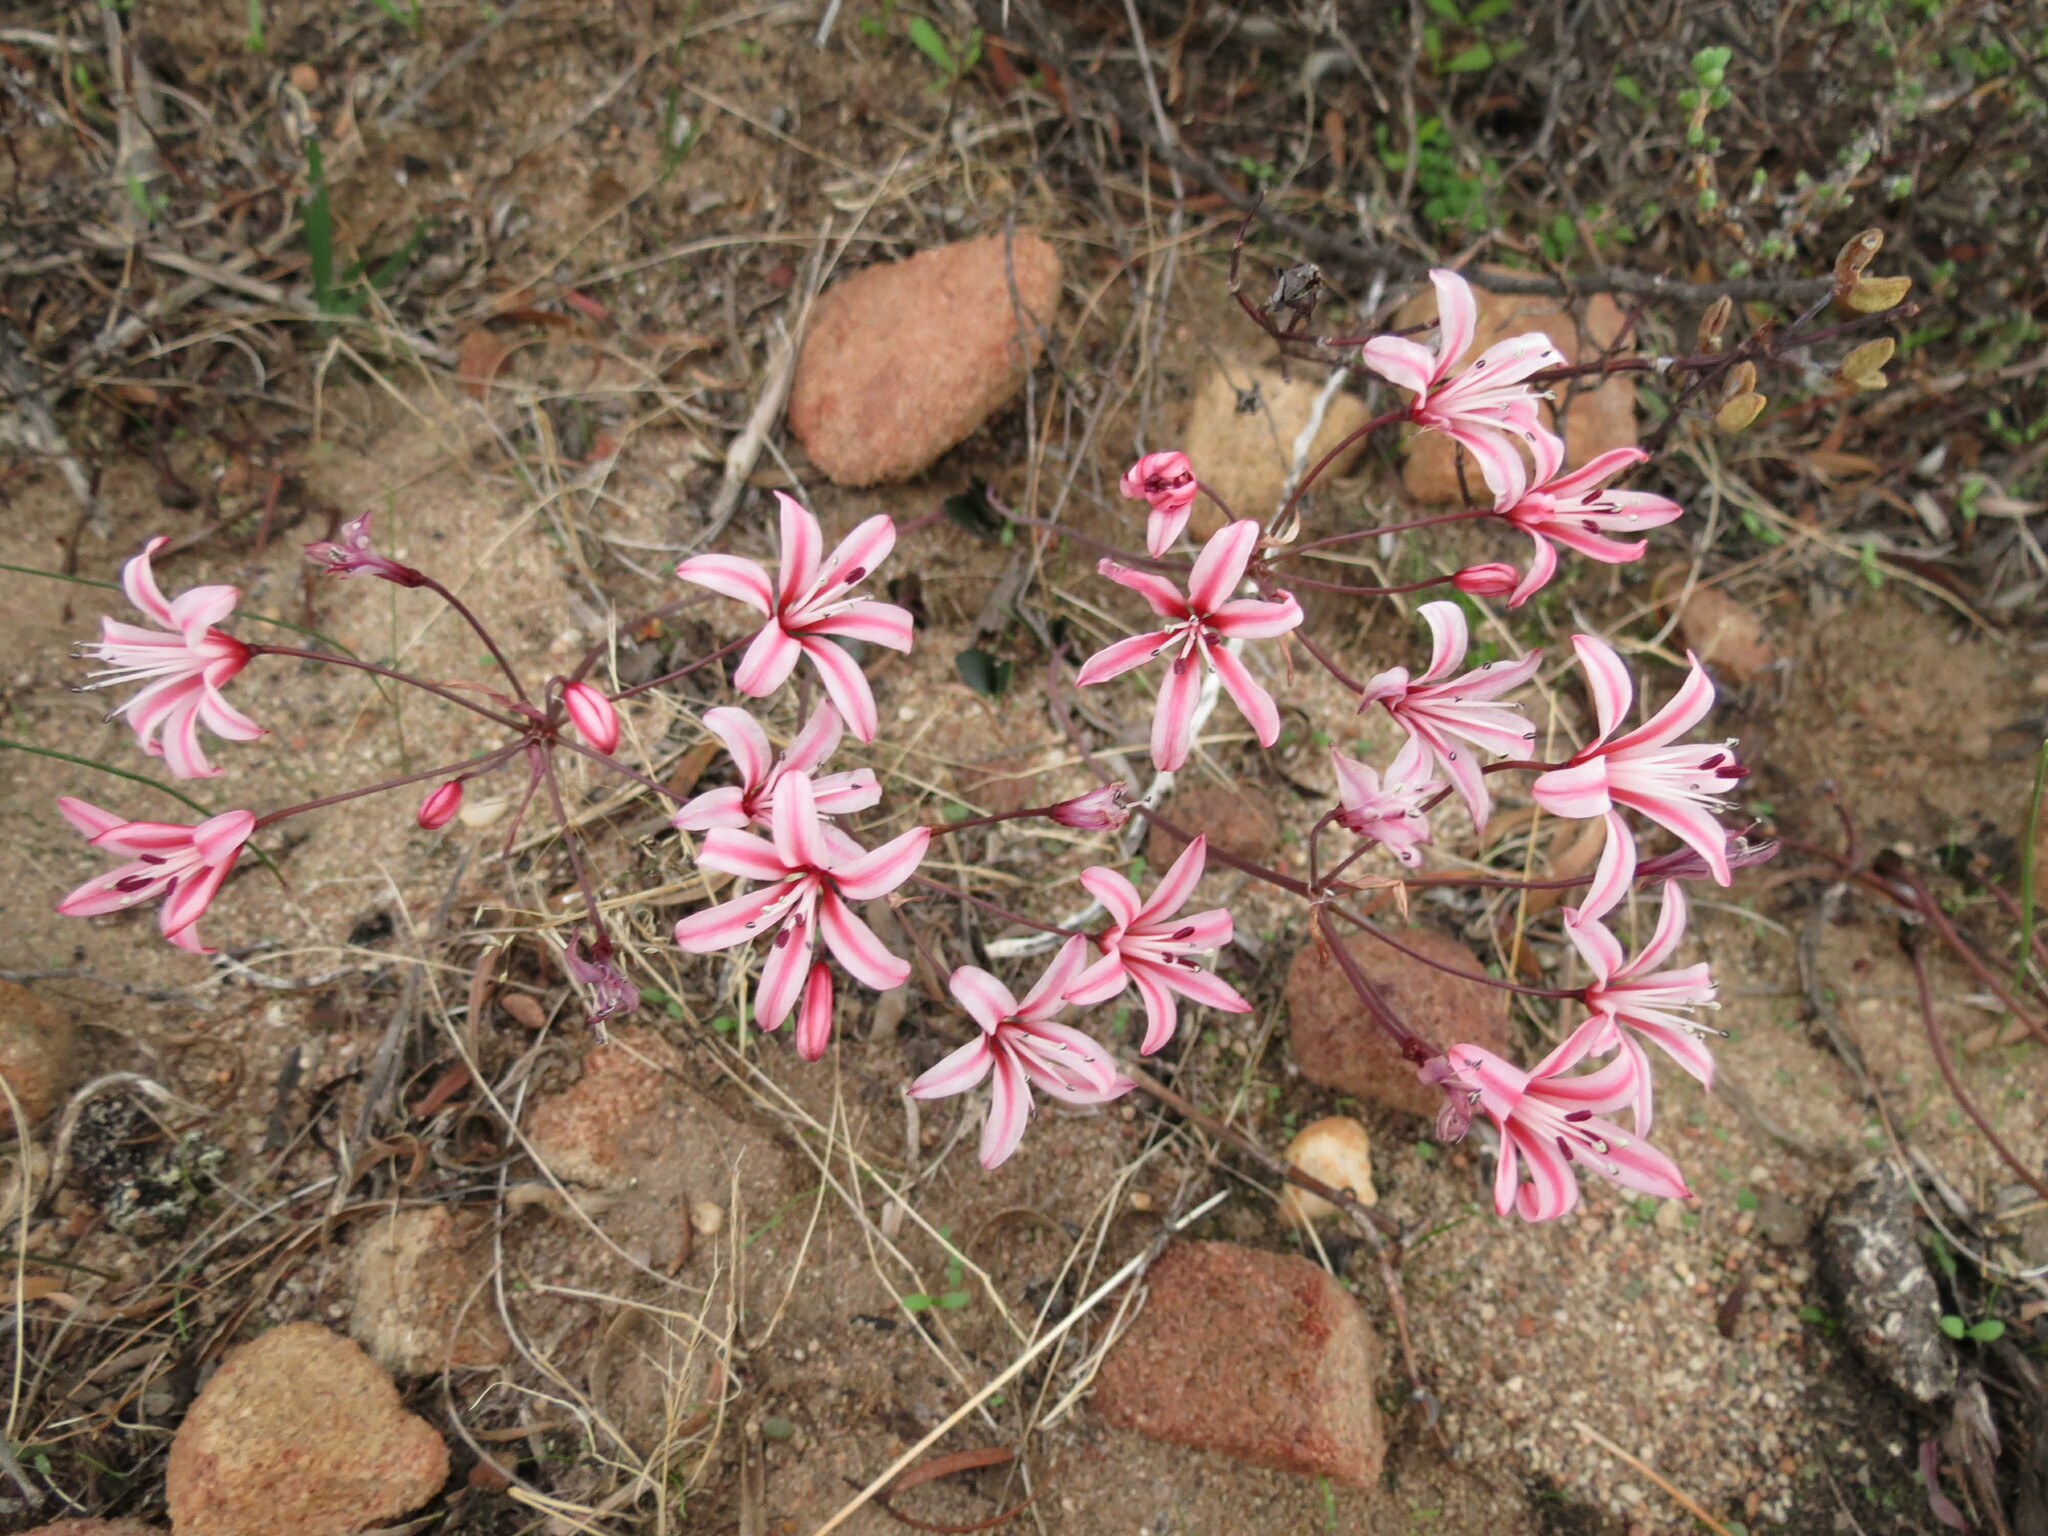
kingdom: Plantae
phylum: Tracheophyta
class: Liliopsida
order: Asparagales
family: Amaryllidaceae
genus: Strumaria
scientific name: Strumaria salteri
